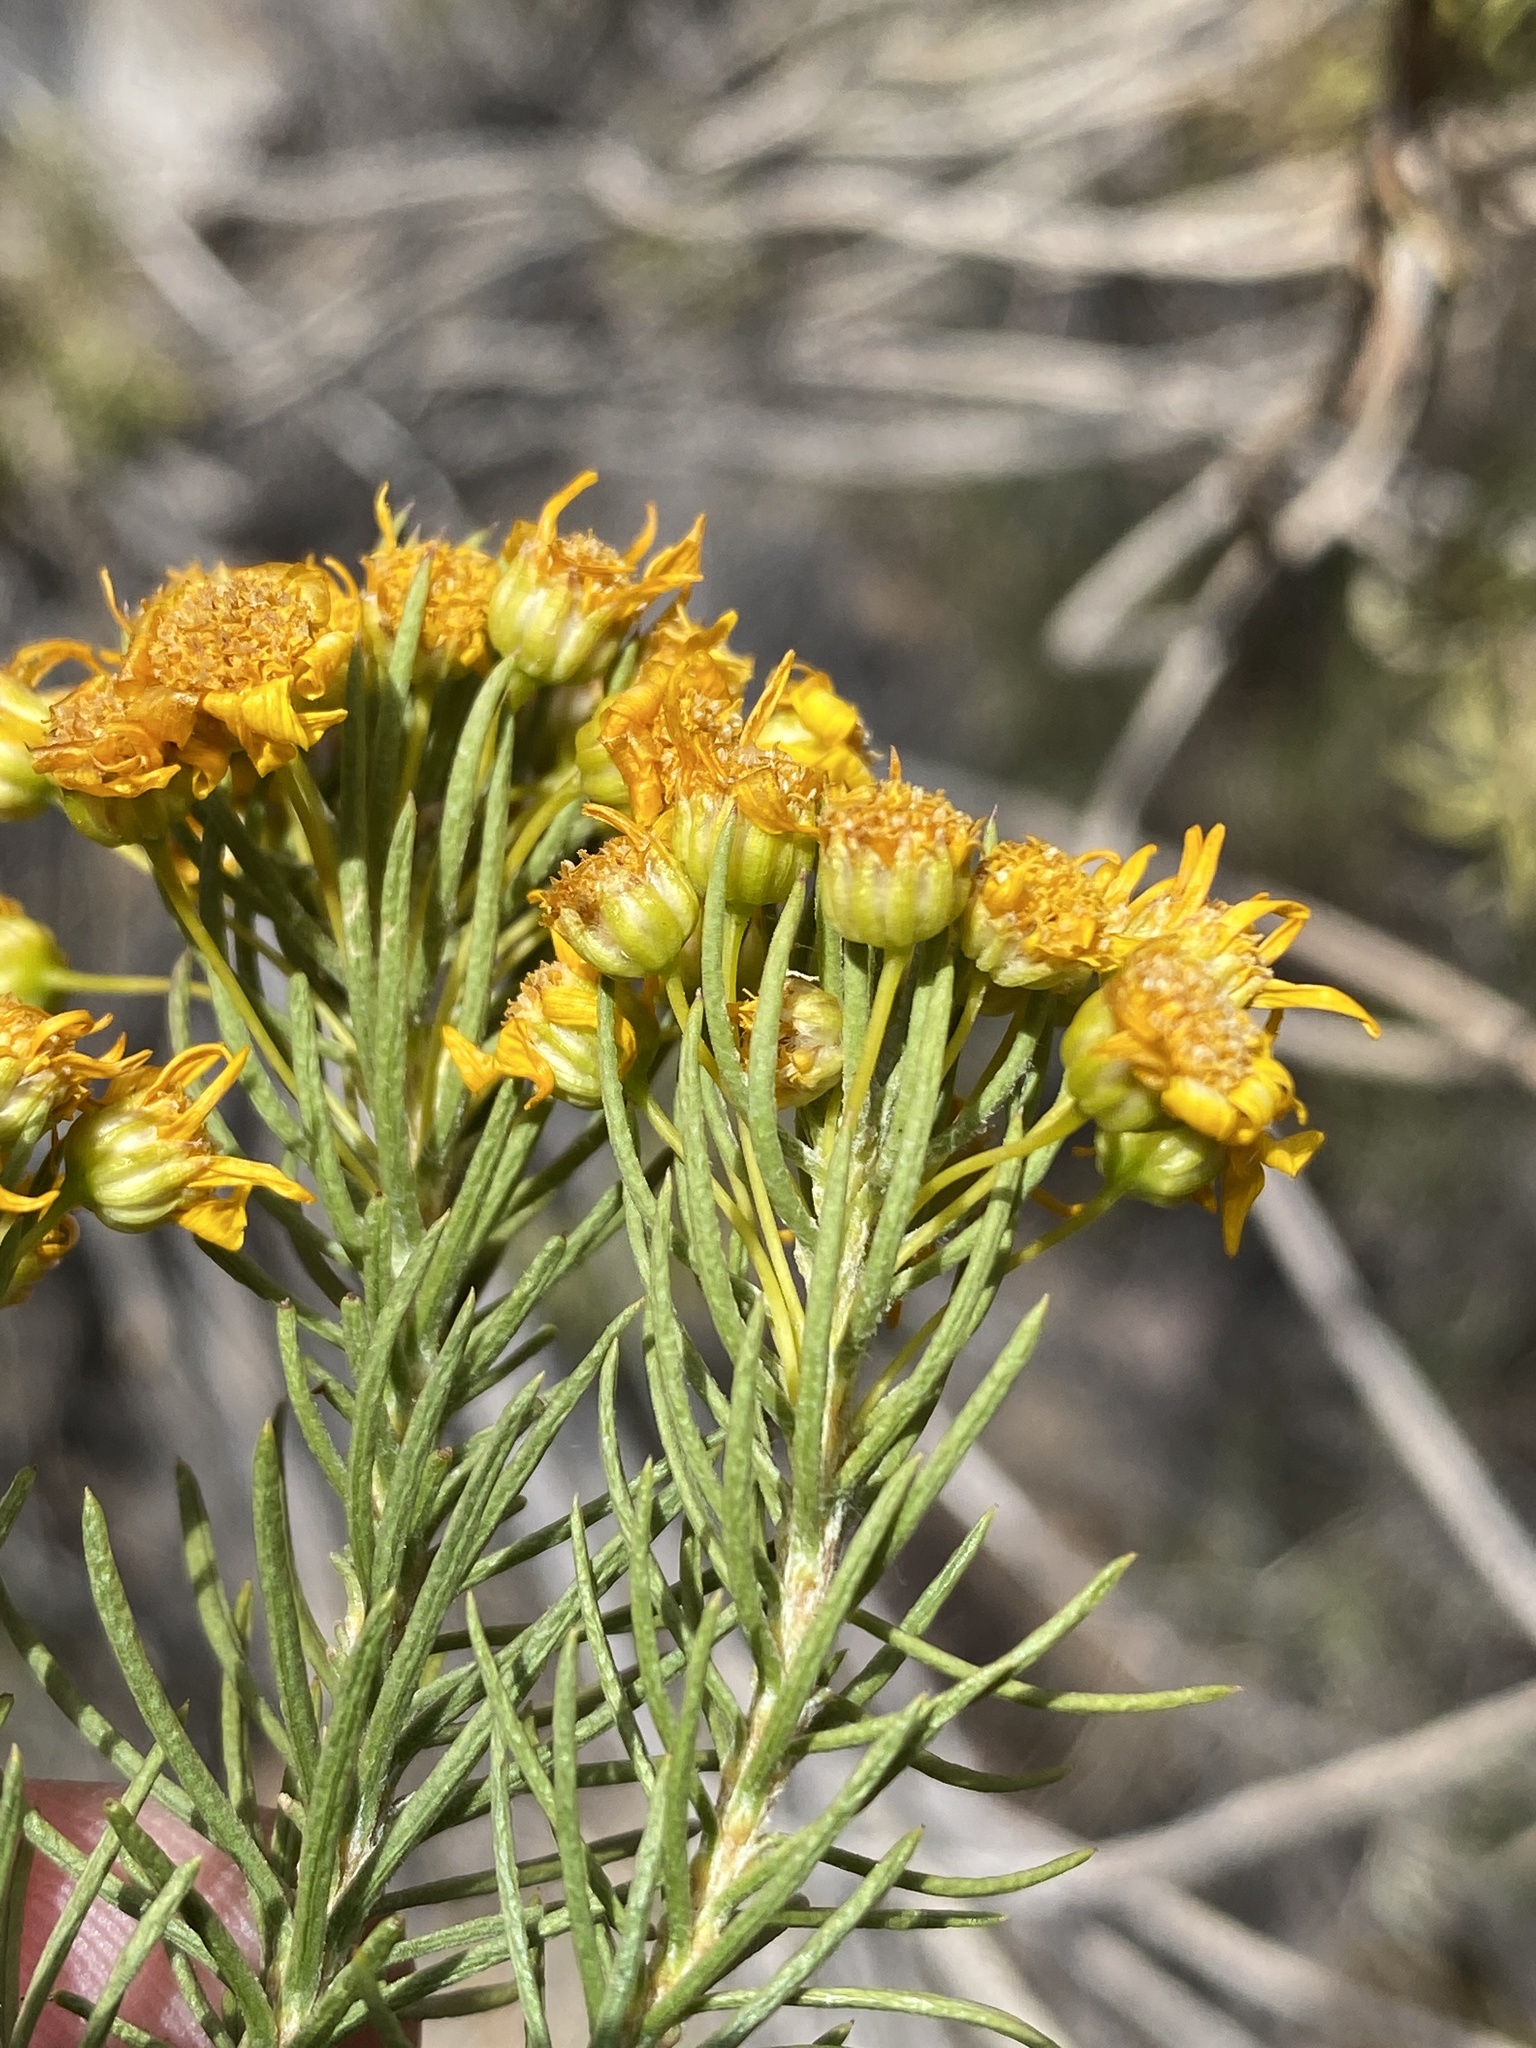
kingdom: Plantae
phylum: Tracheophyta
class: Magnoliopsida
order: Asterales
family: Asteraceae
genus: Euryops
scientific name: Euryops rehmannii
